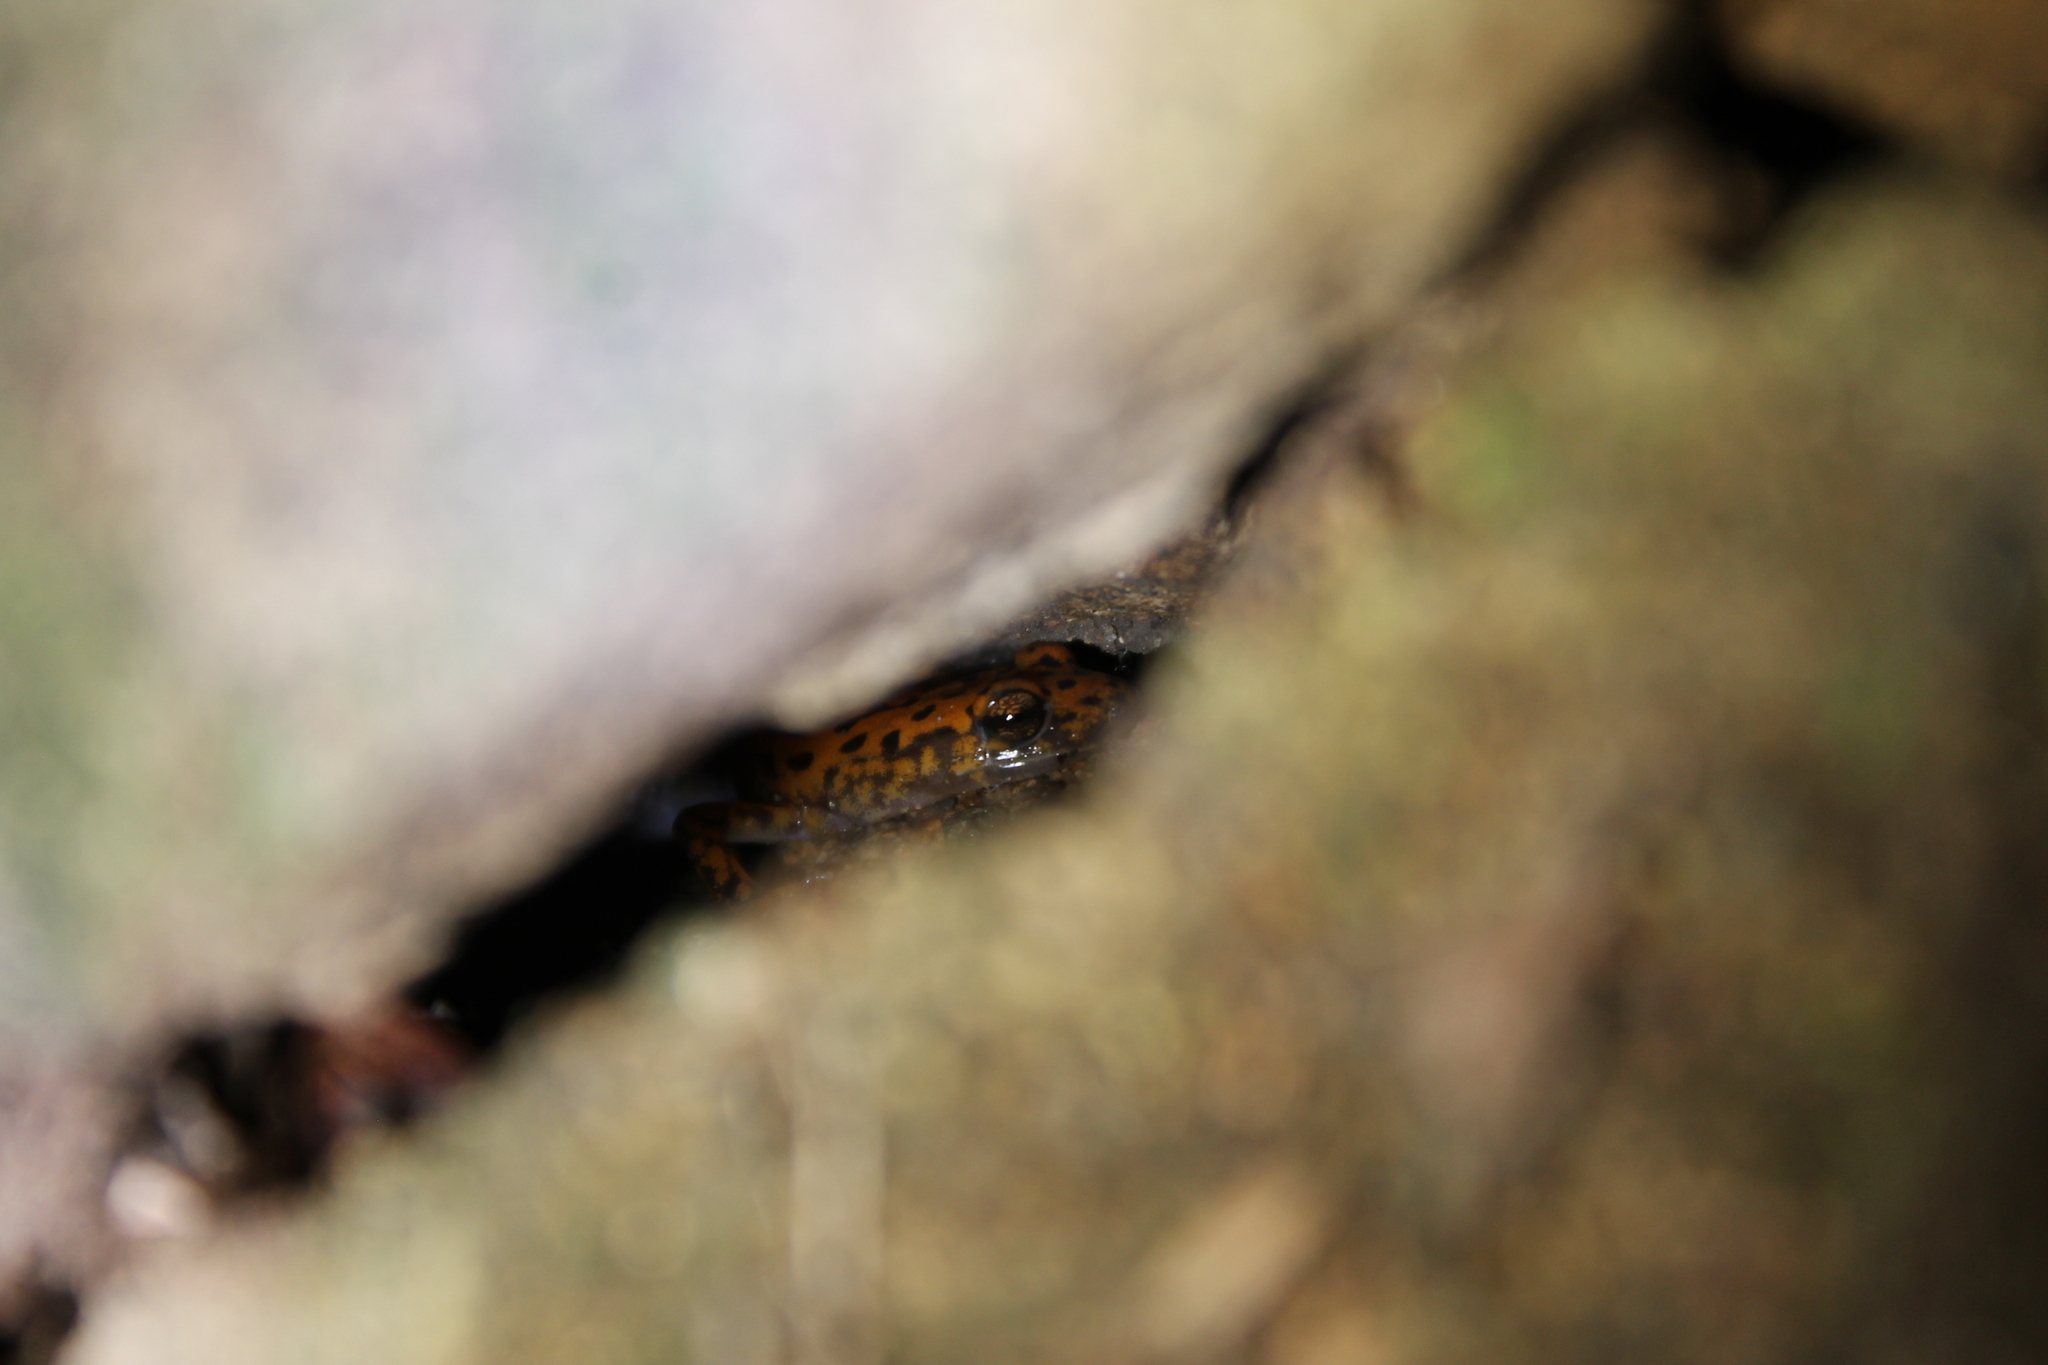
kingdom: Animalia
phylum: Chordata
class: Amphibia
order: Caudata
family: Plethodontidae
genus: Eurycea
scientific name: Eurycea lucifuga
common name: Cave salamander
